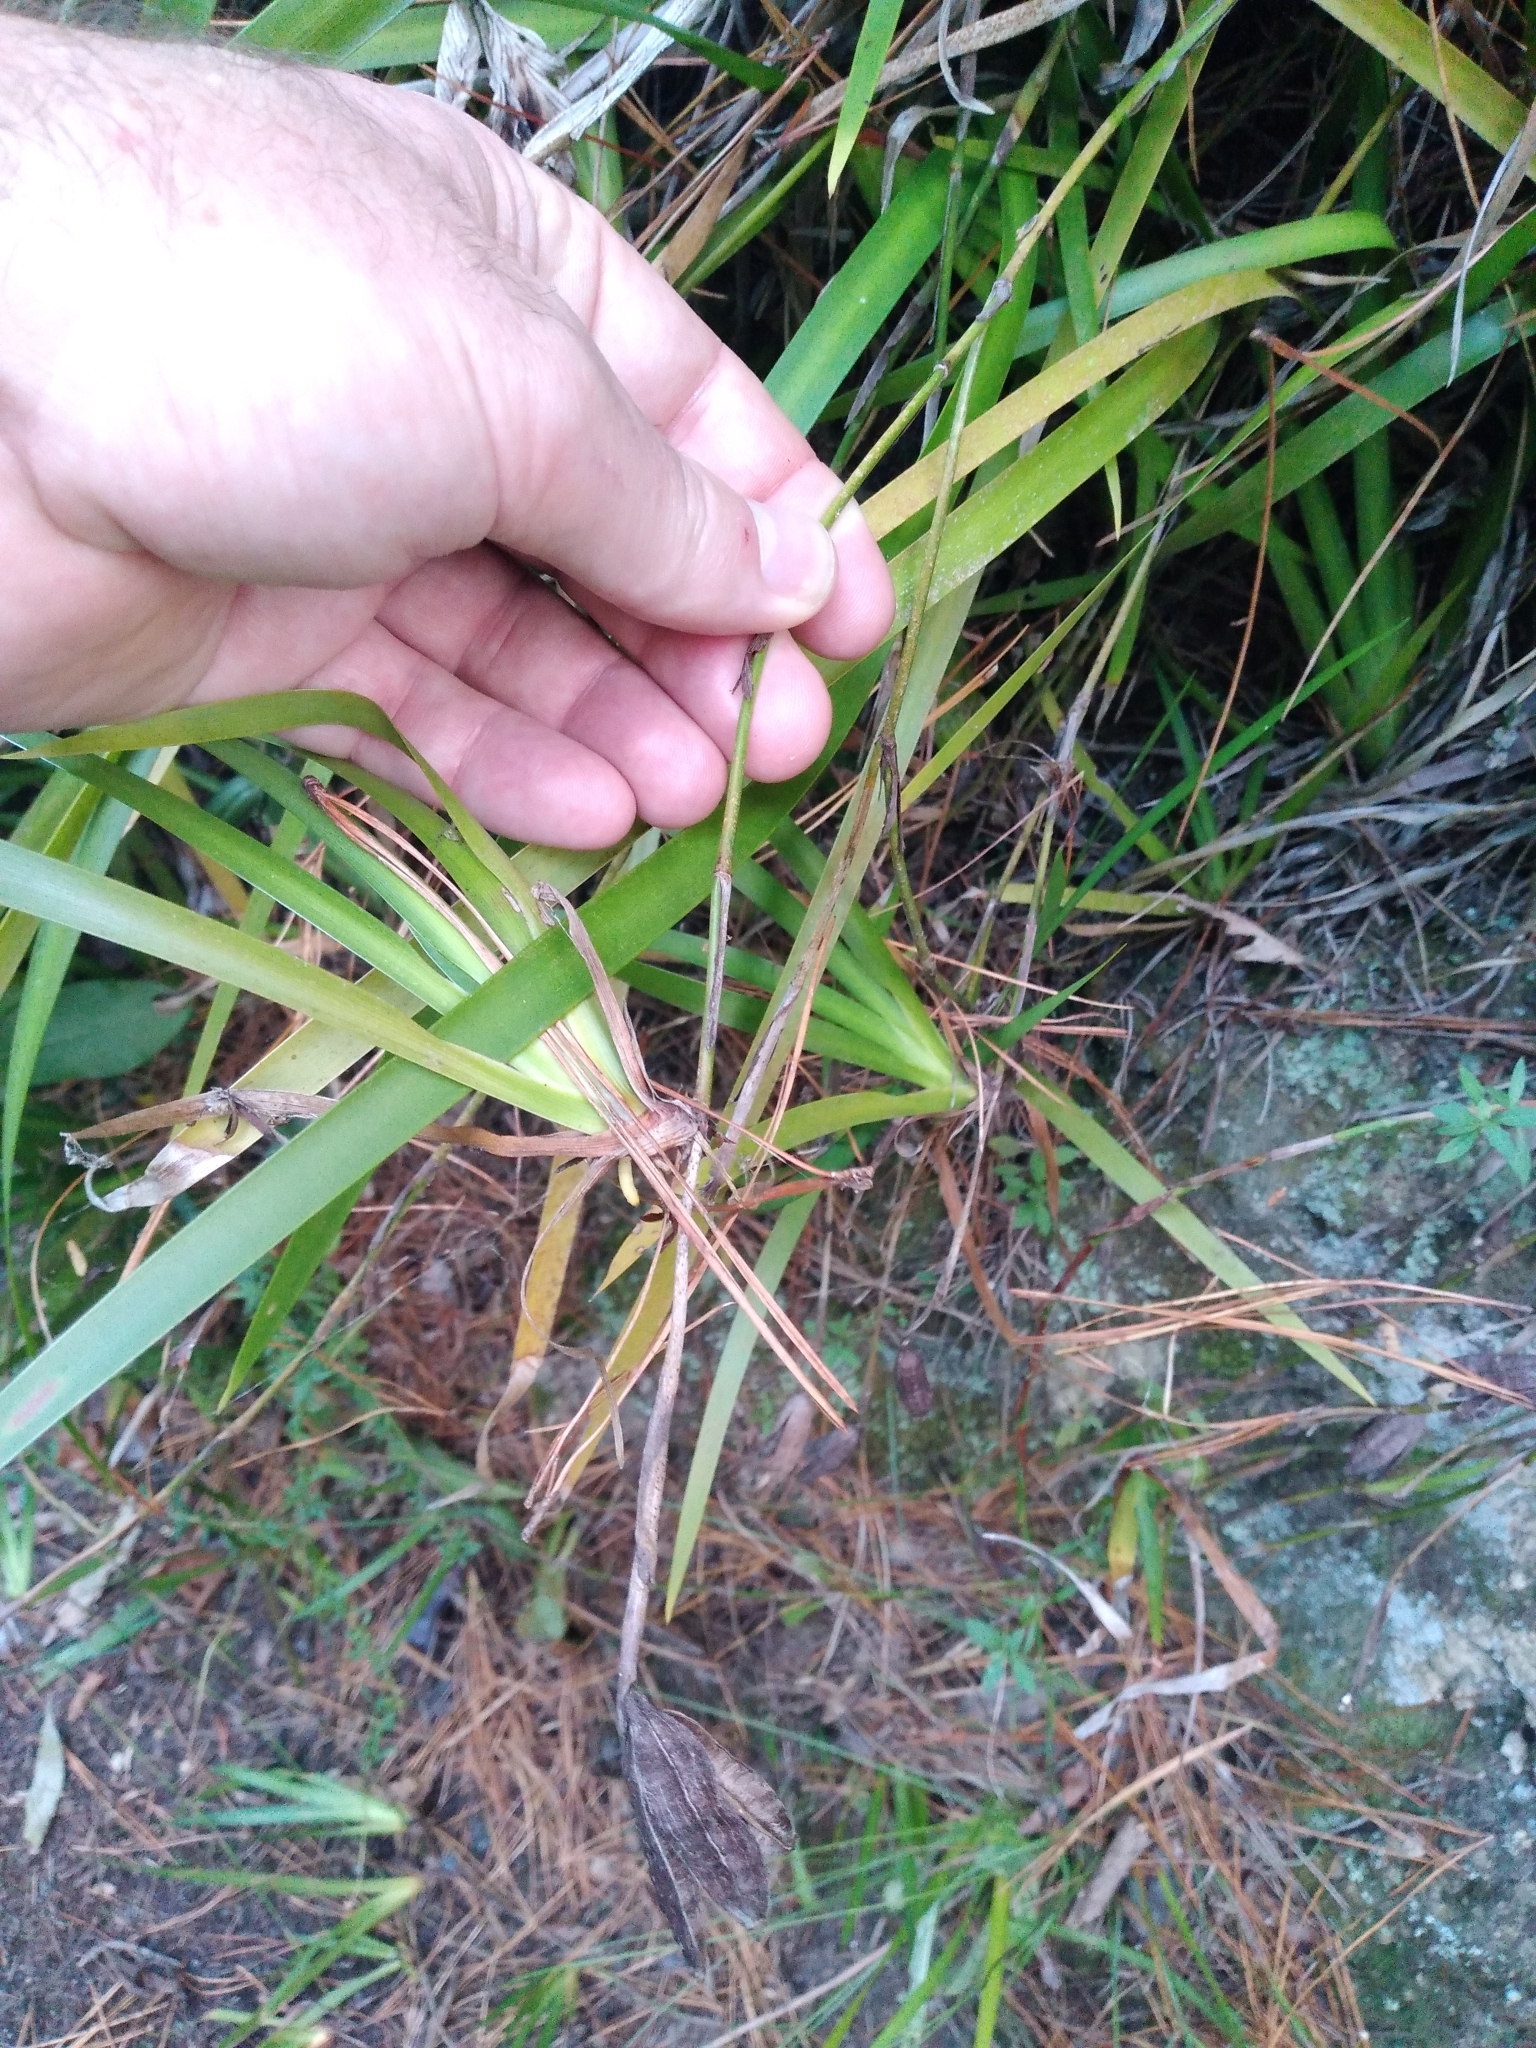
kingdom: Plantae
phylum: Tracheophyta
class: Liliopsida
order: Asparagales
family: Iridaceae
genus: Iris
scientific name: Iris foetidissima
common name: Stinking iris
